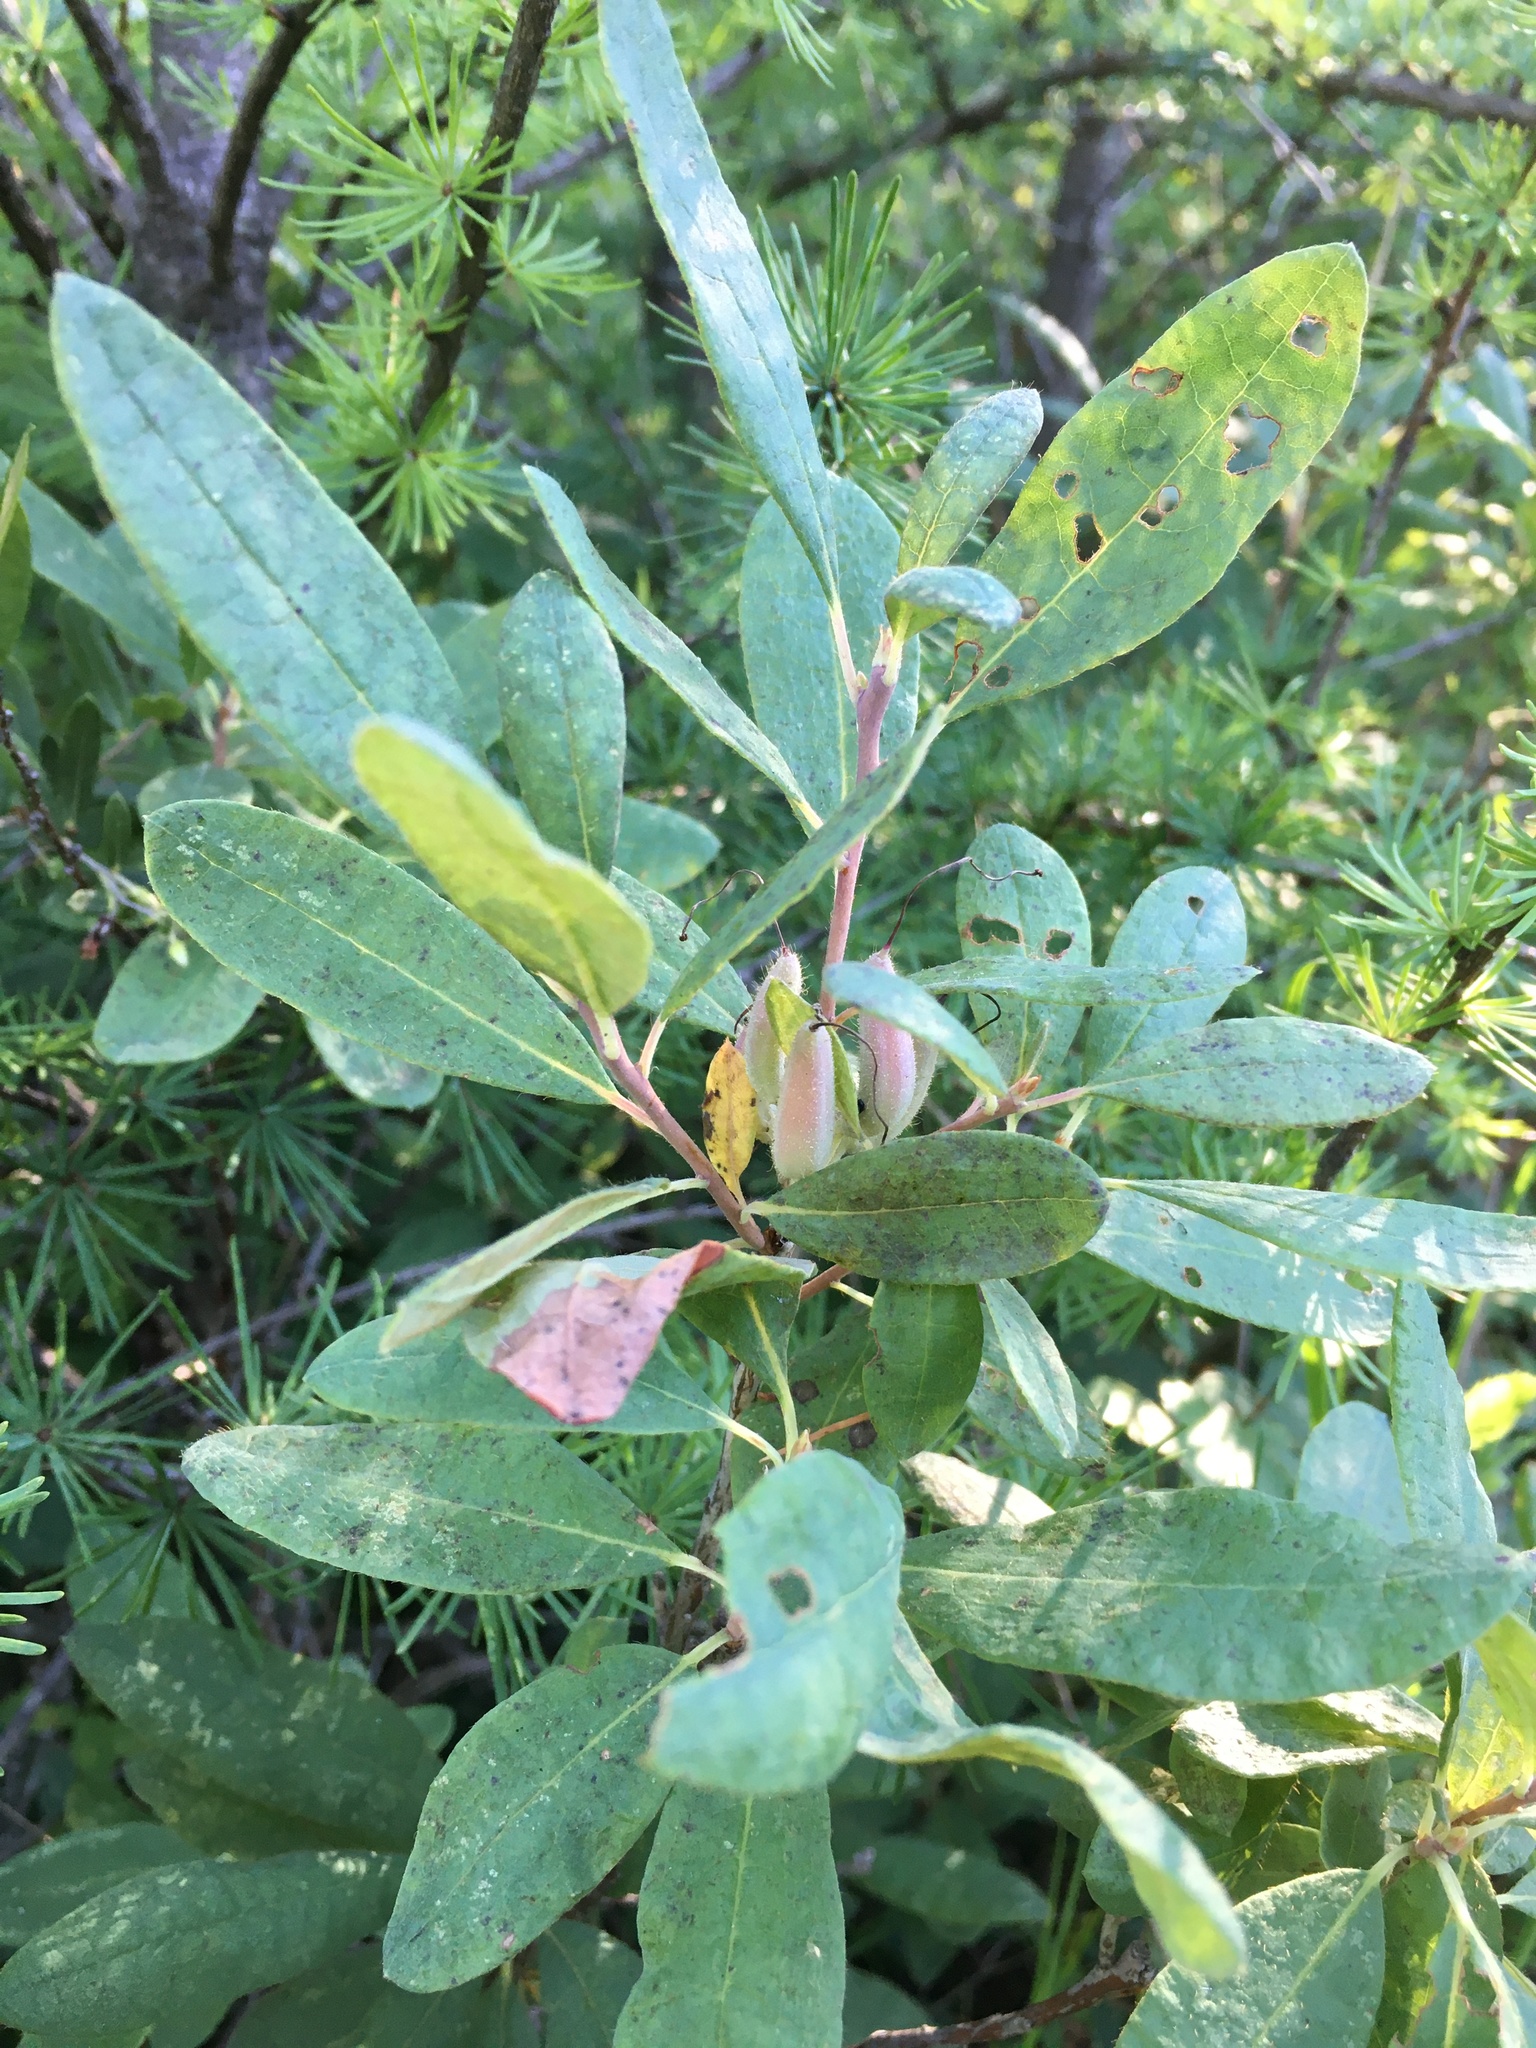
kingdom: Plantae
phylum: Tracheophyta
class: Magnoliopsida
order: Ericales
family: Ericaceae
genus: Rhododendron
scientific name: Rhododendron canadense
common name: Rhodora
